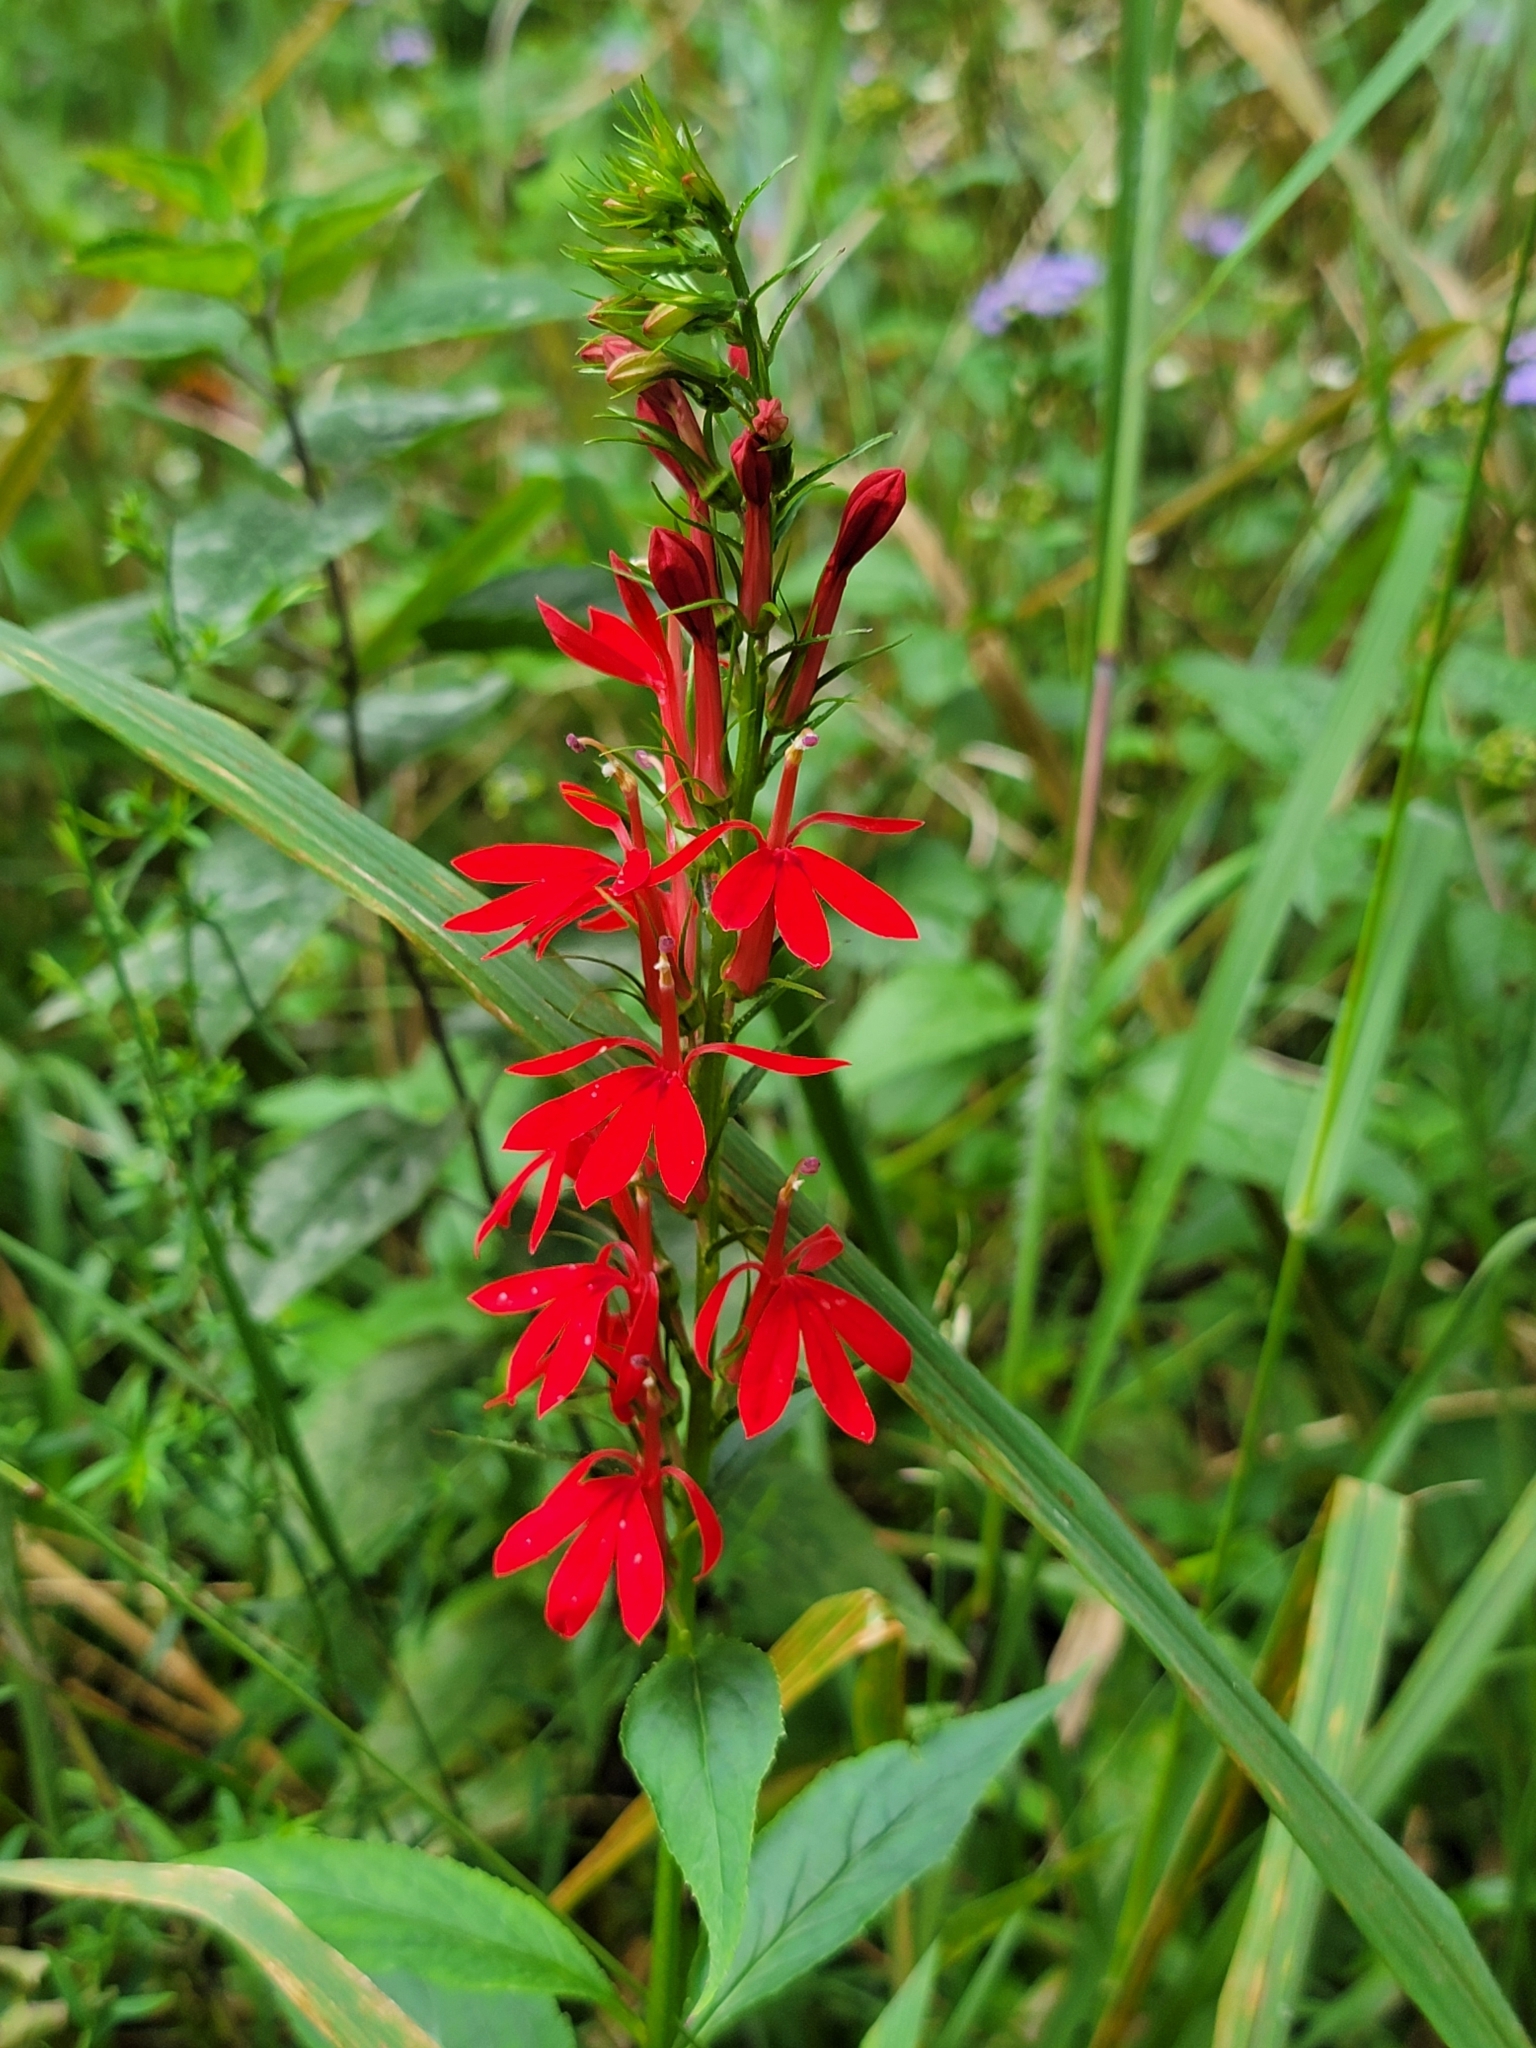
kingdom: Plantae
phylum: Tracheophyta
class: Magnoliopsida
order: Asterales
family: Campanulaceae
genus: Lobelia
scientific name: Lobelia cardinalis
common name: Cardinal flower
